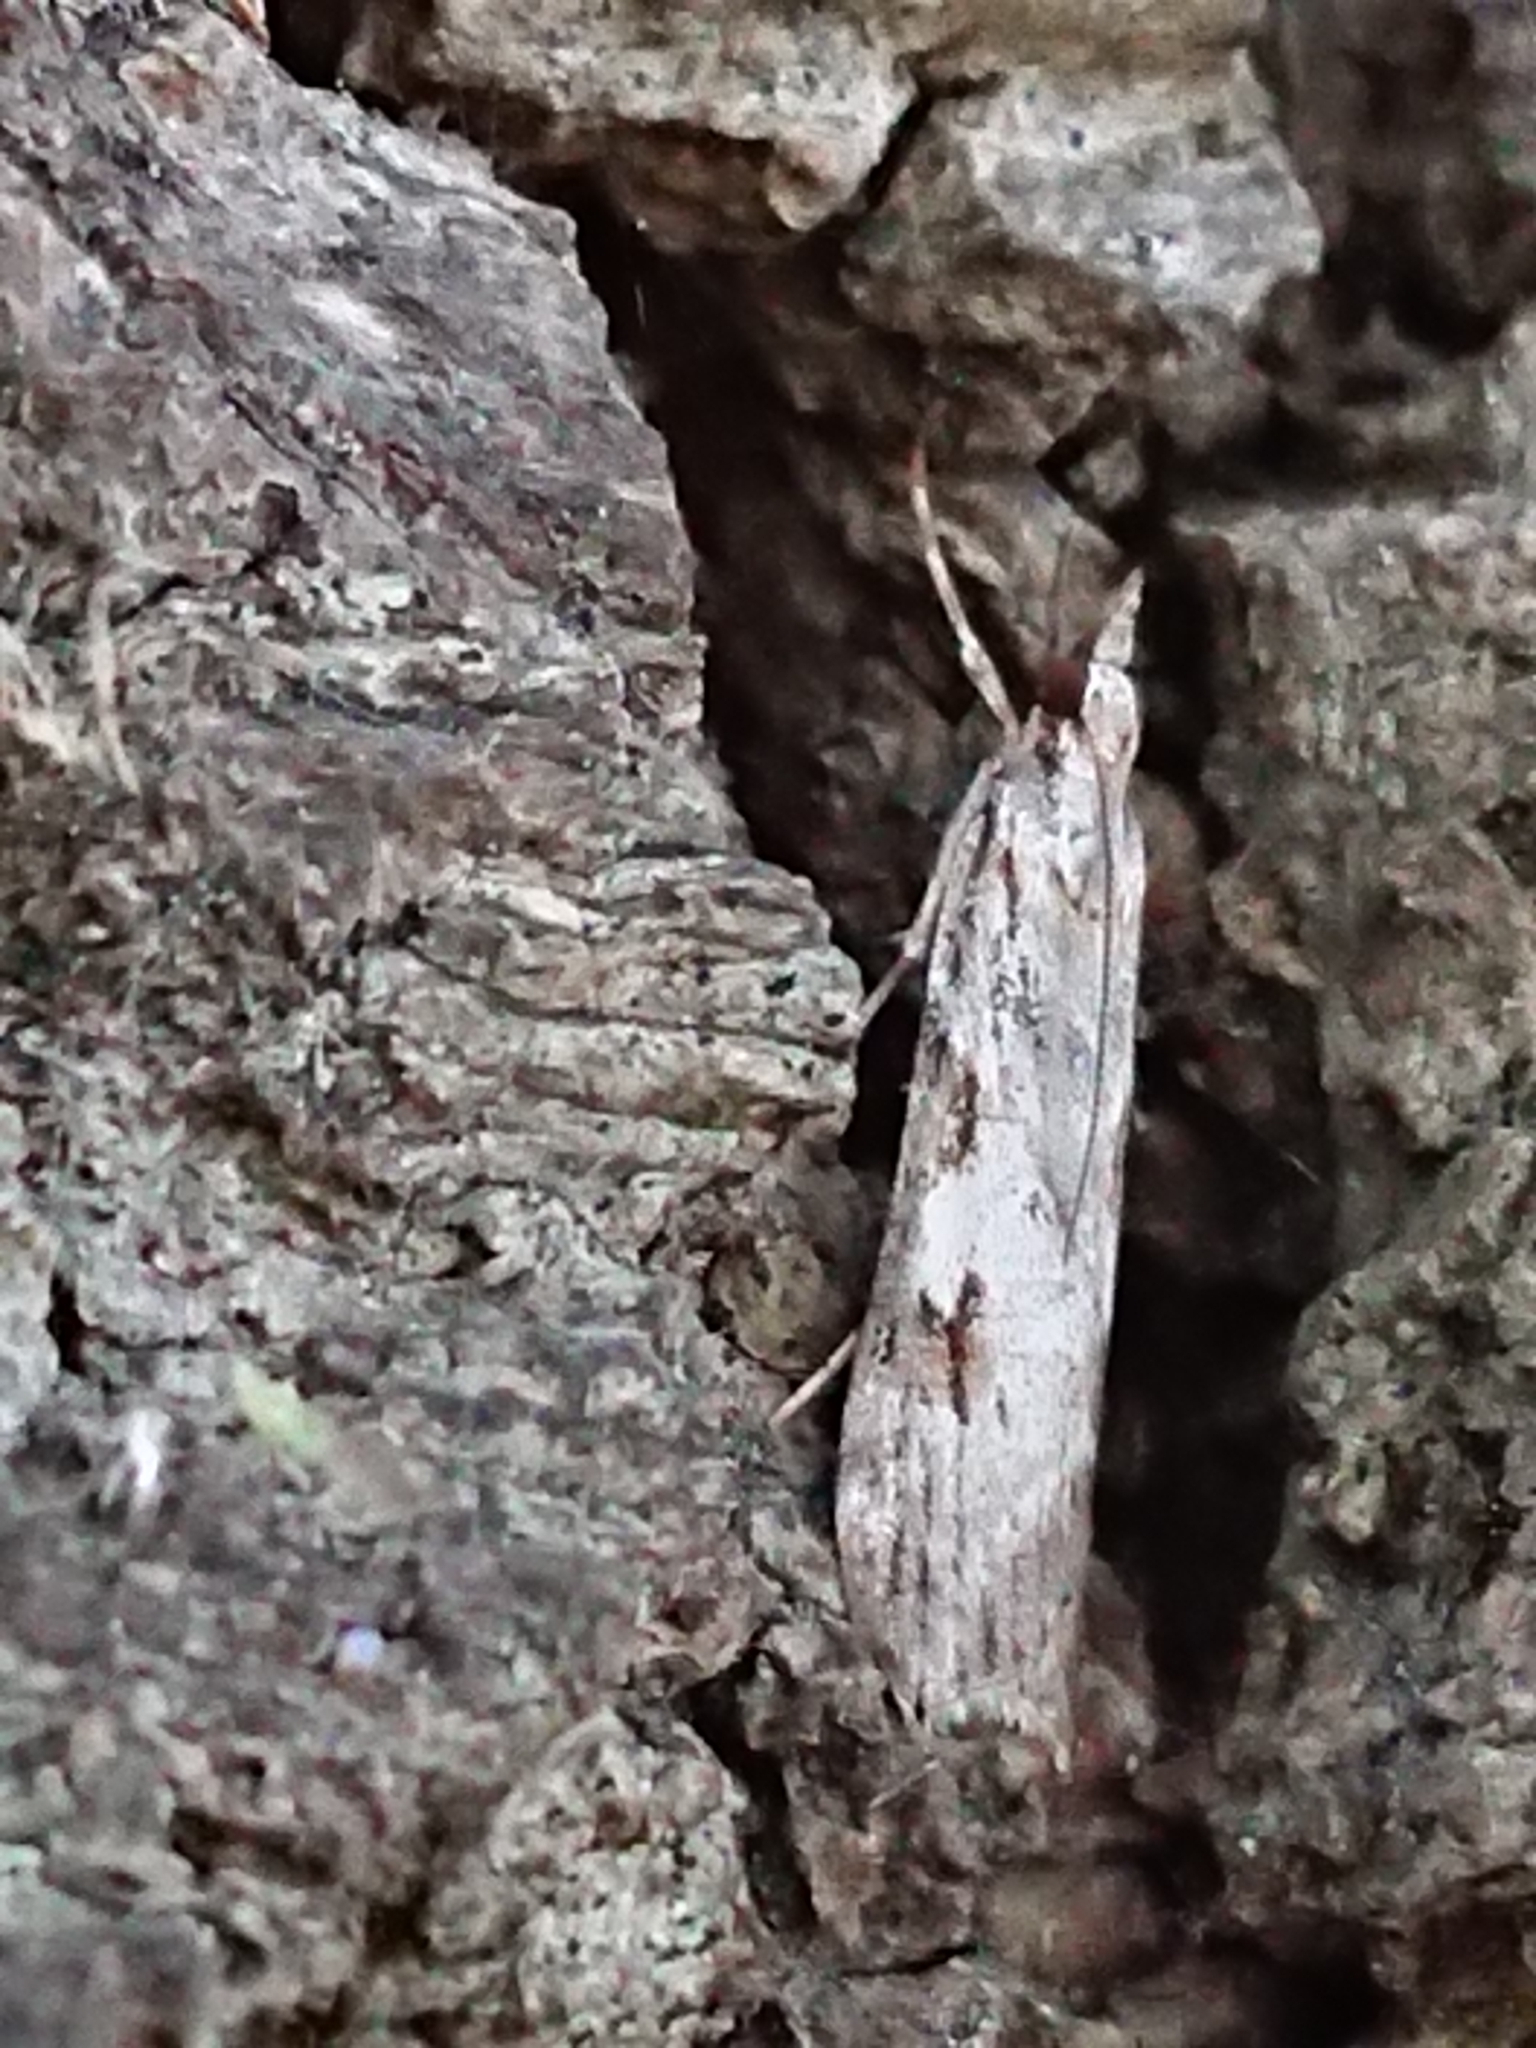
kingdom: Animalia
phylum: Arthropoda
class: Insecta
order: Lepidoptera
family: Crambidae
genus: Scoparia
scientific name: Scoparia halopis
